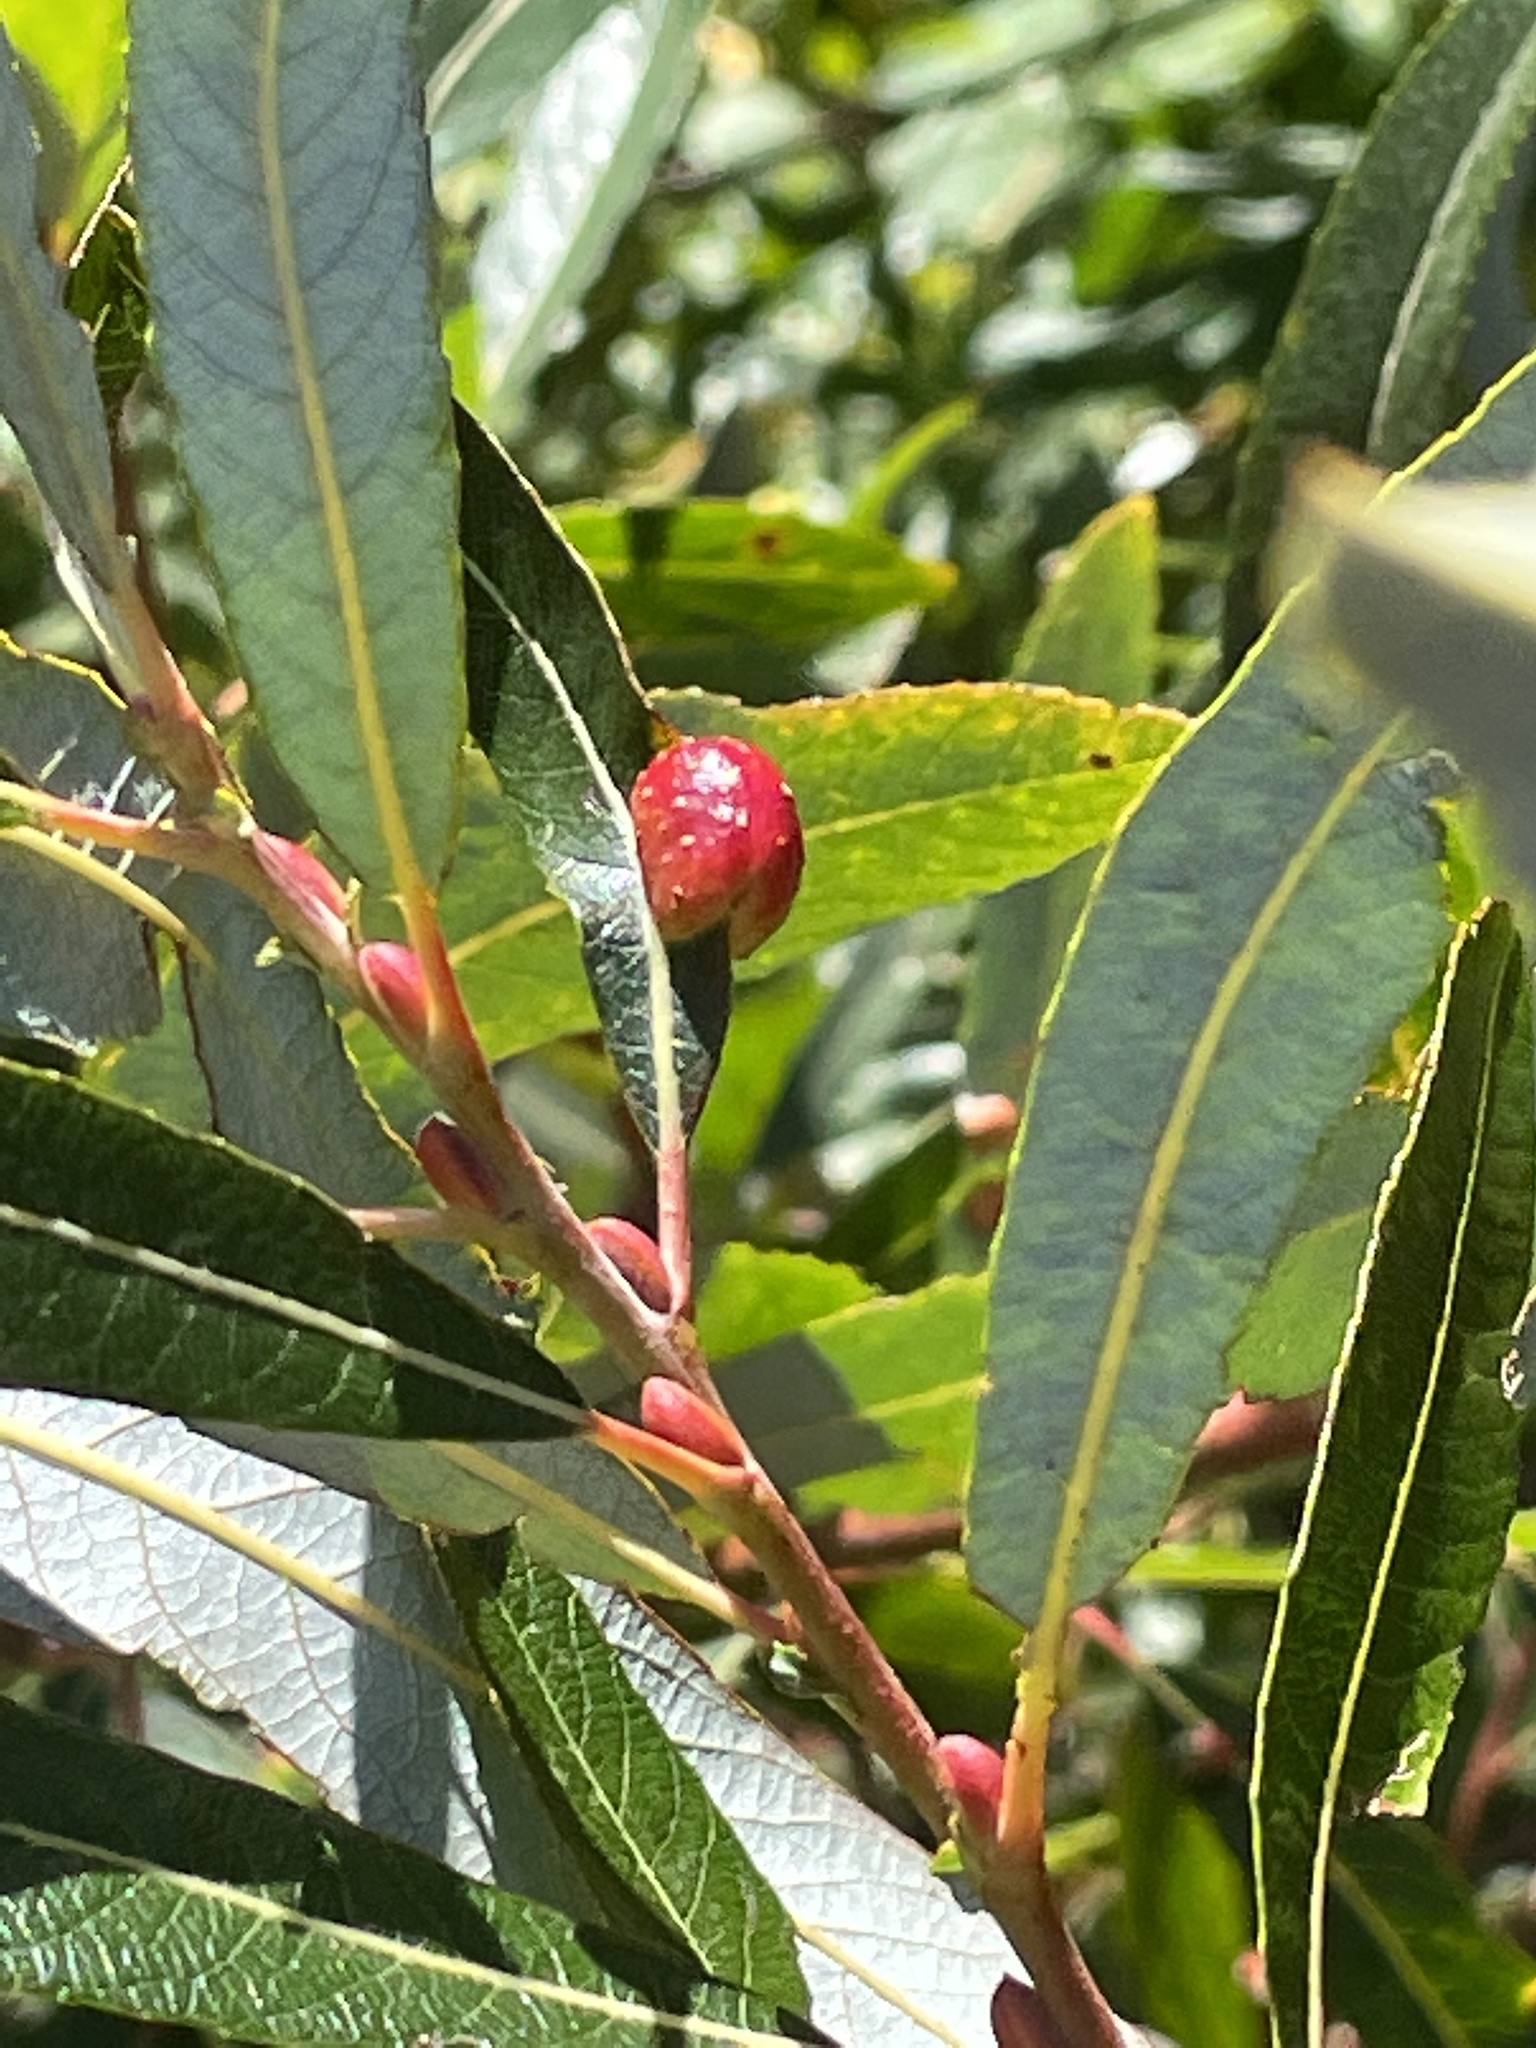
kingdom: Animalia
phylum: Arthropoda
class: Insecta
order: Hymenoptera
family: Tenthredinidae
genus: Euura
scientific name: Euura
